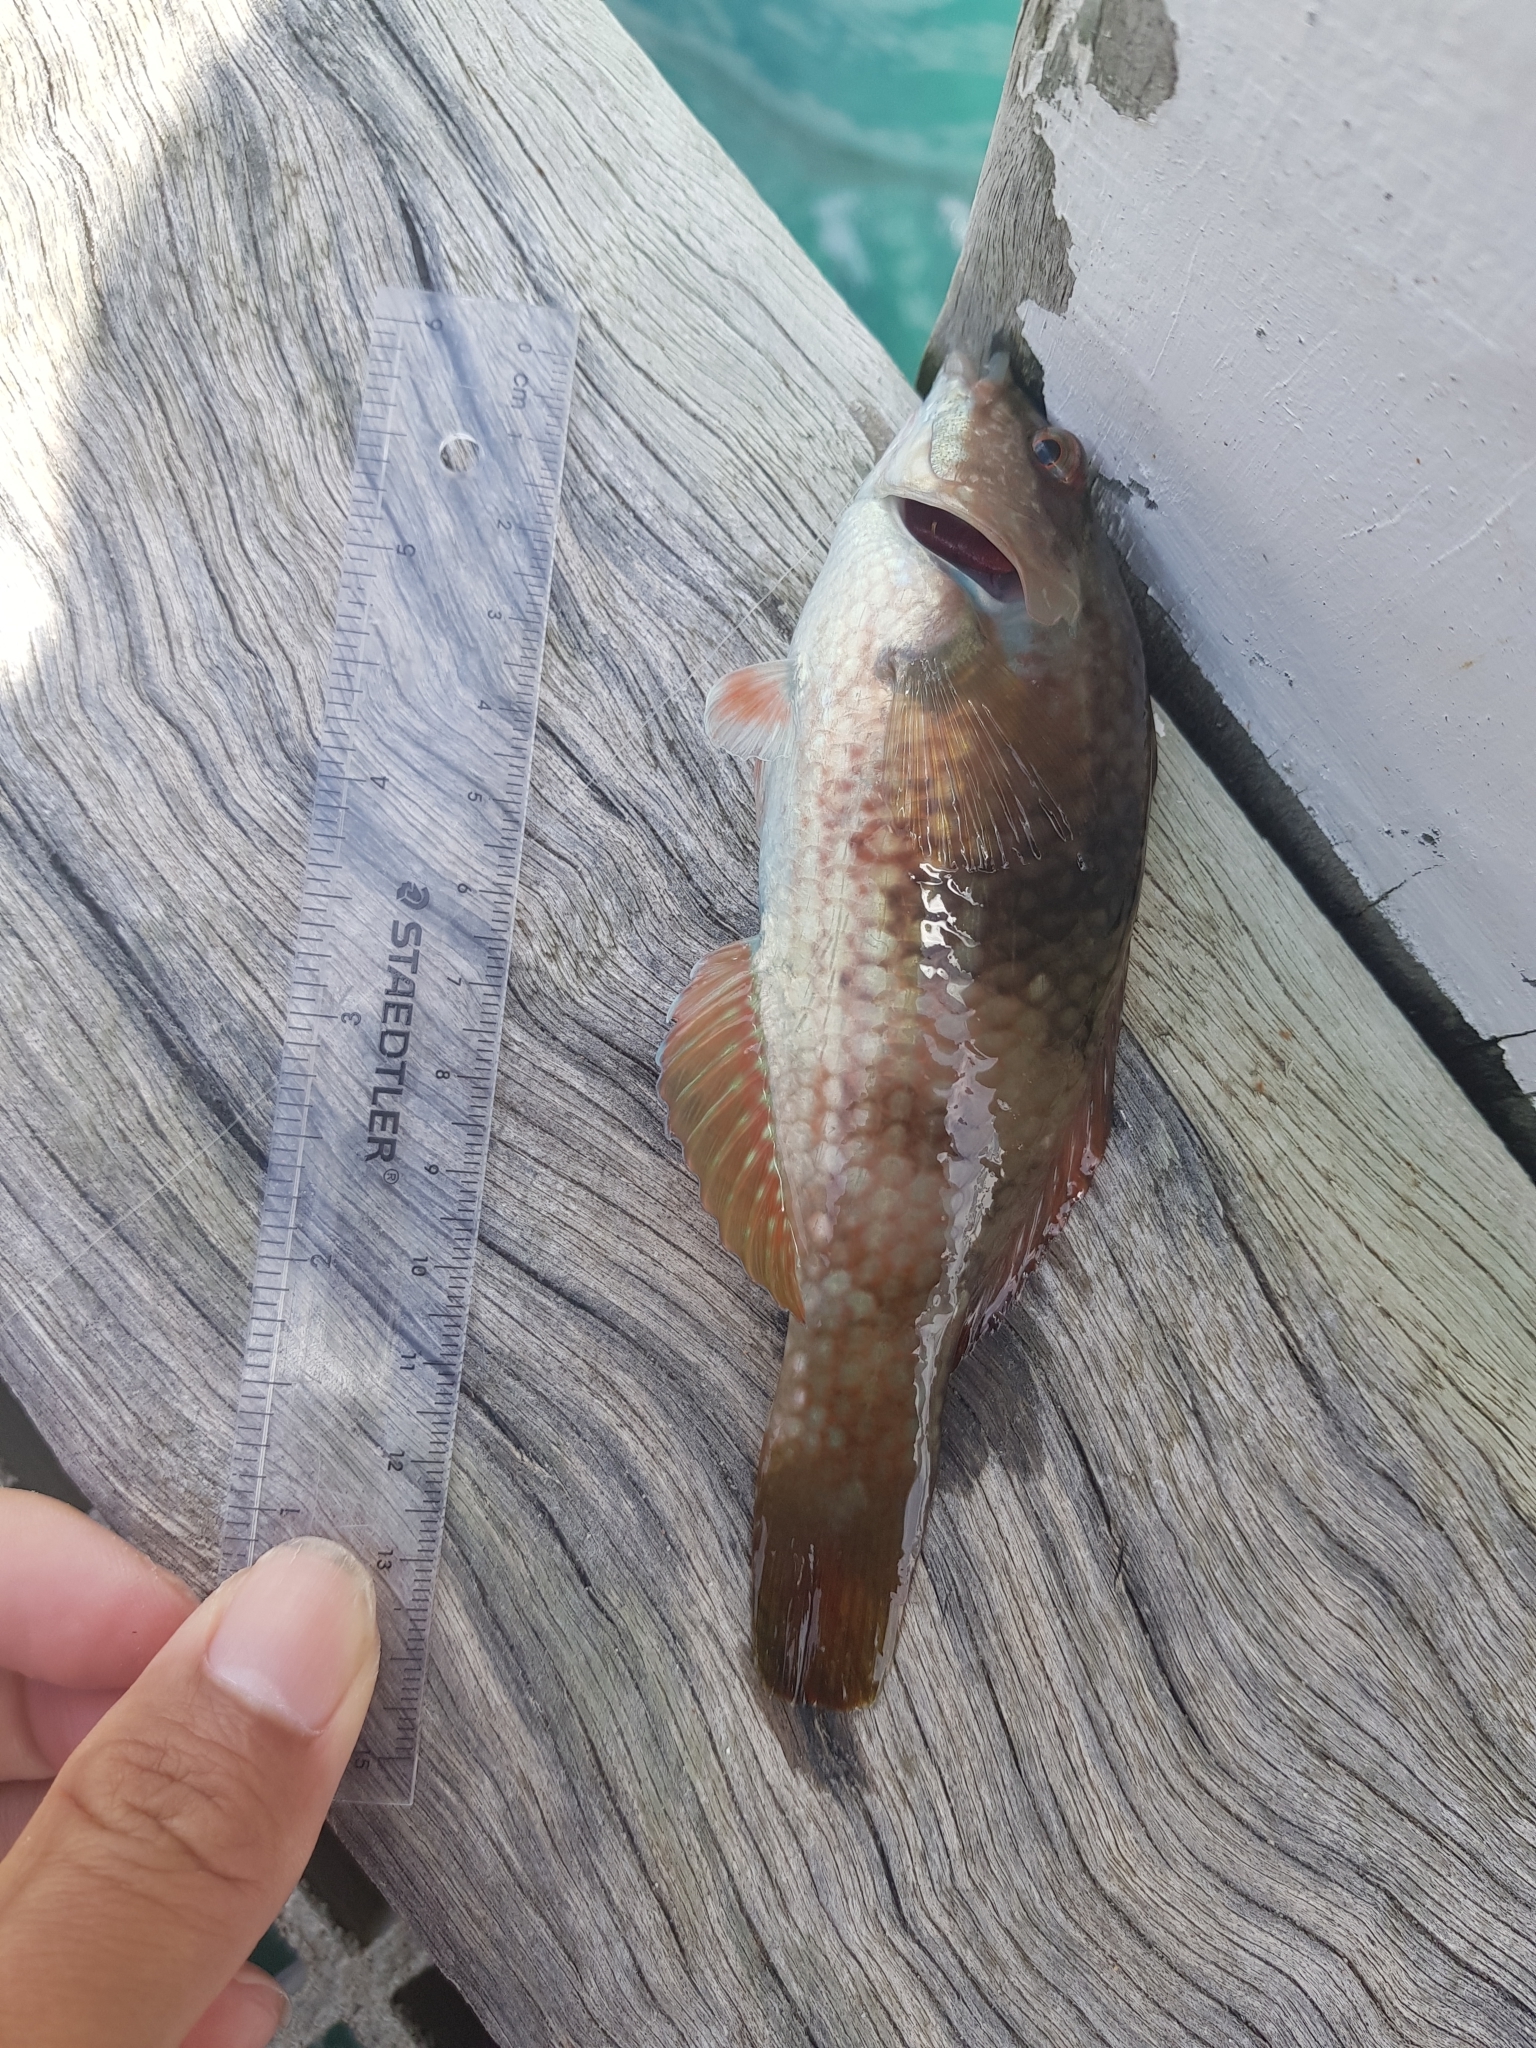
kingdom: Animalia
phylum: Chordata
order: Perciformes
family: Labridae
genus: Notolabrus
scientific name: Notolabrus tetricus
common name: Blue-throated parrotfish
